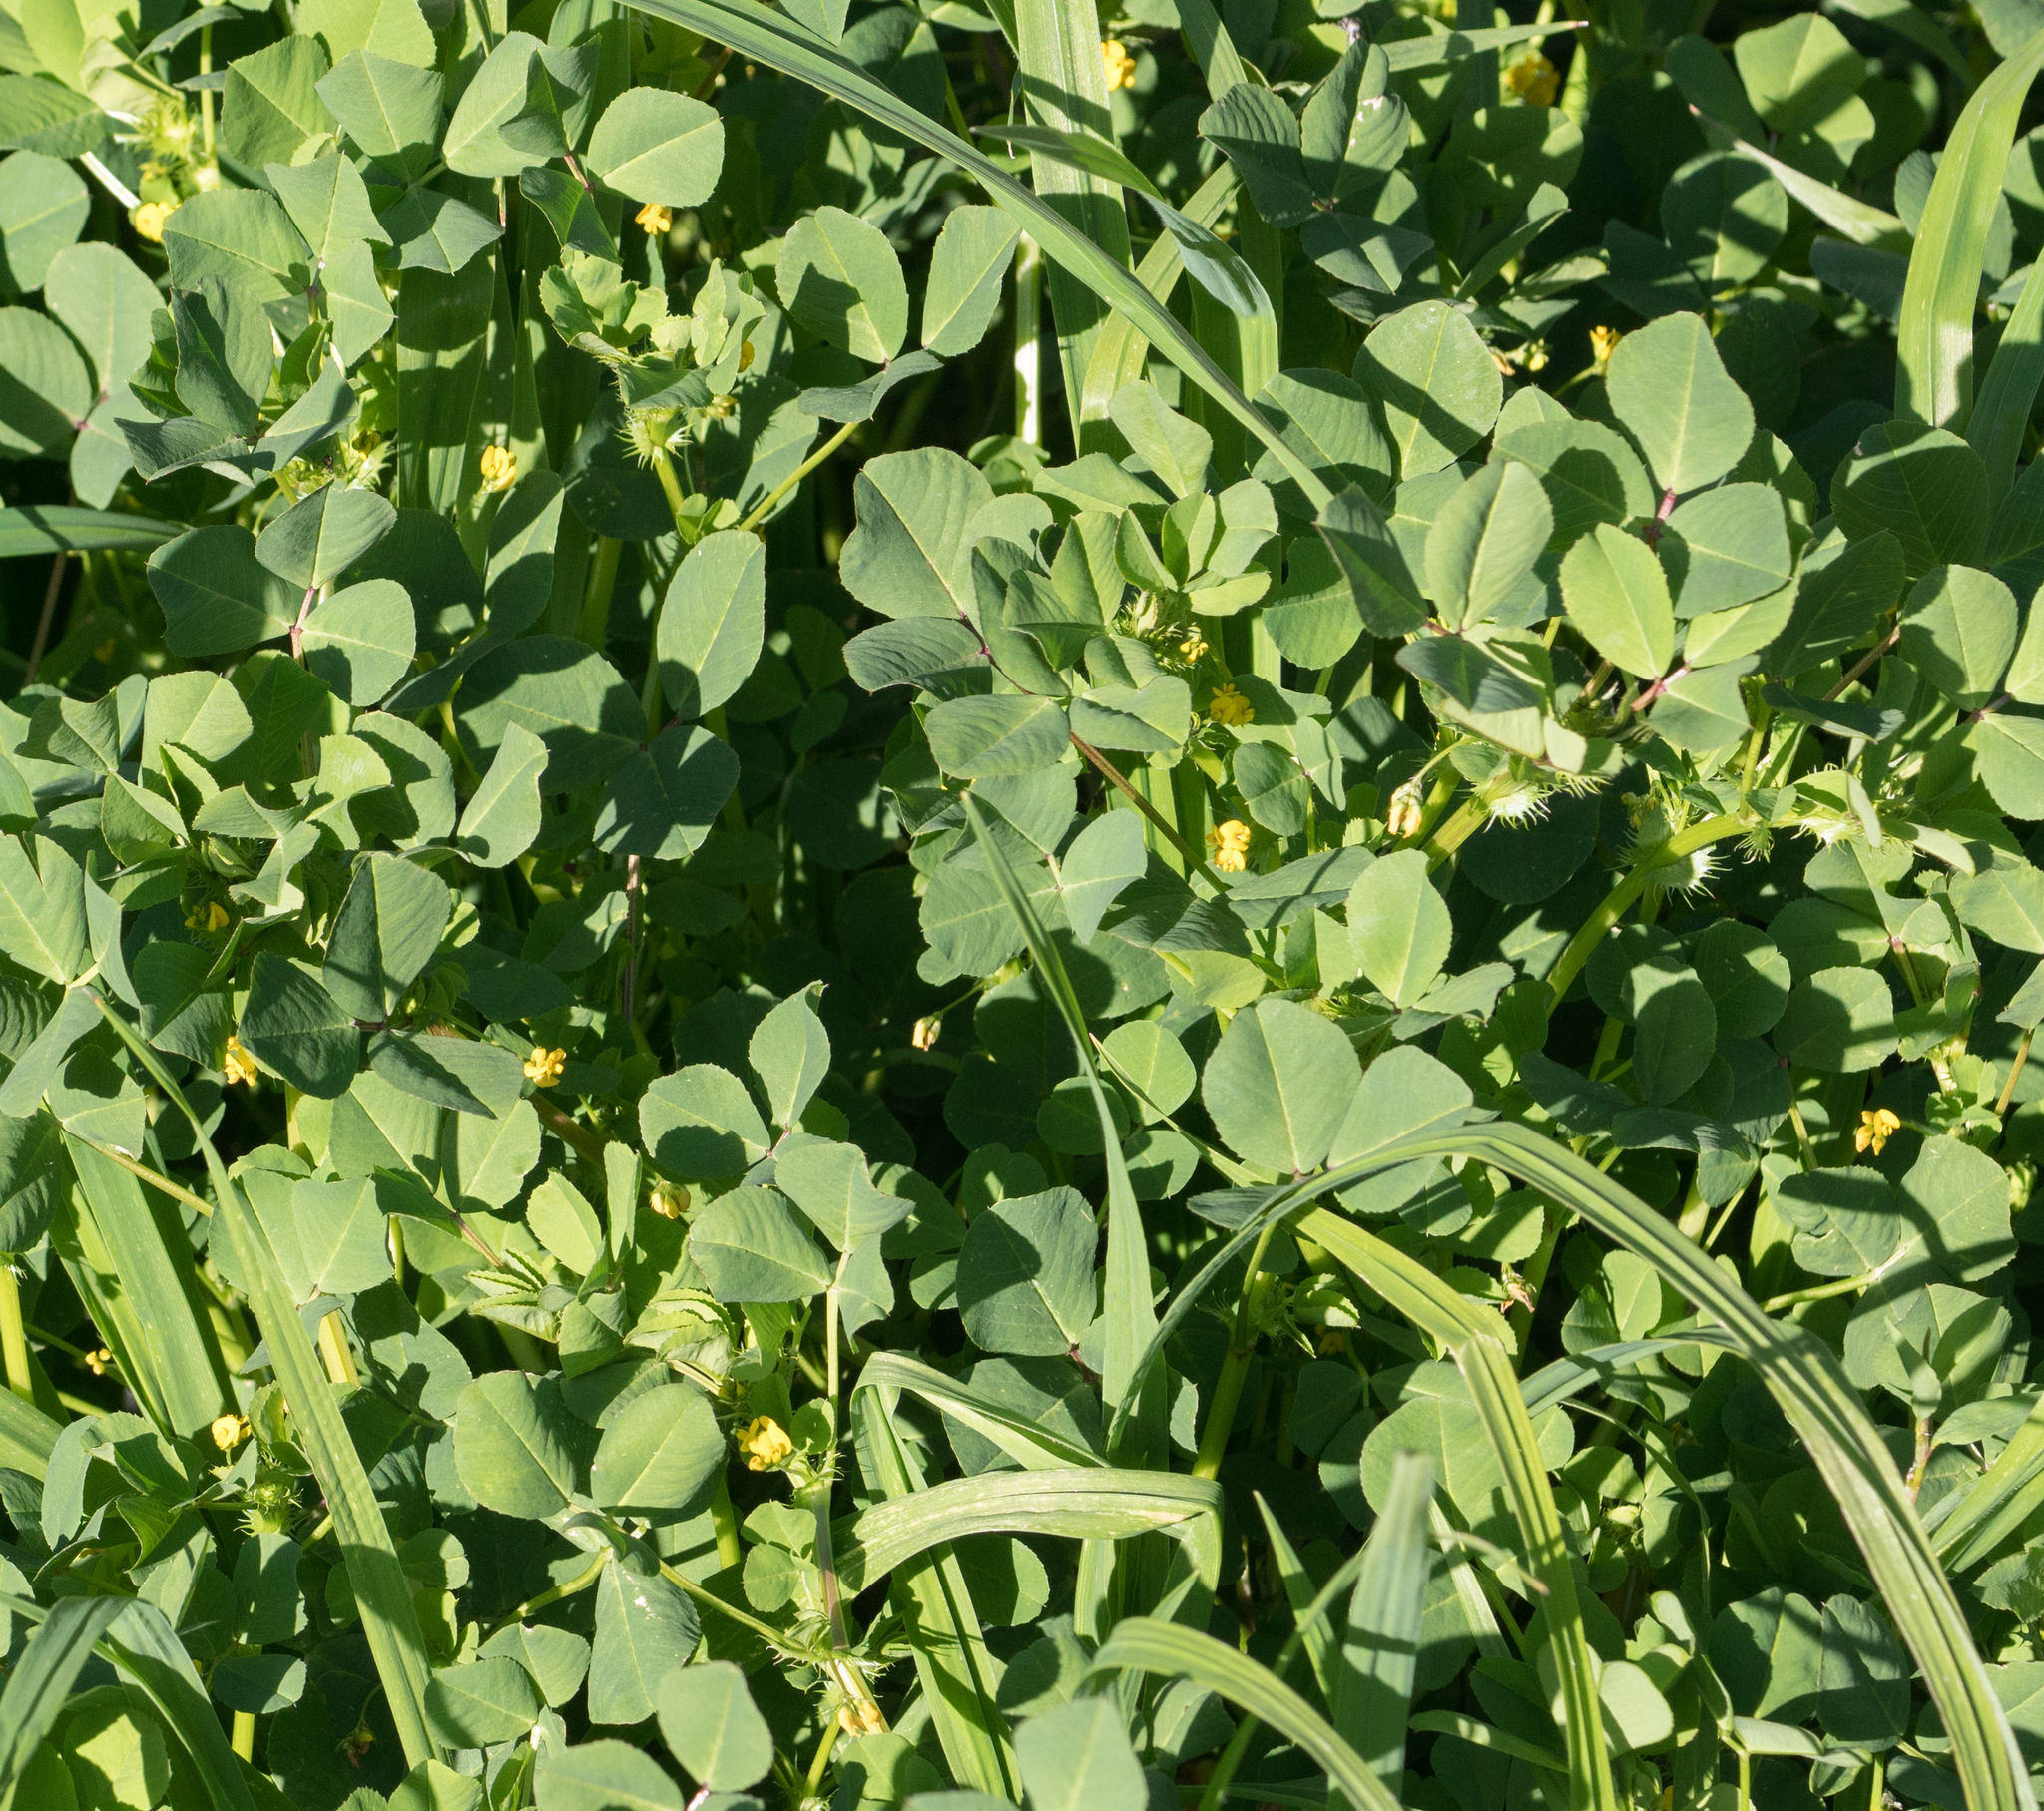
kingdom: Plantae
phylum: Tracheophyta
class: Magnoliopsida
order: Fabales
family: Fabaceae
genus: Medicago
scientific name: Medicago polymorpha
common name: Burclover
